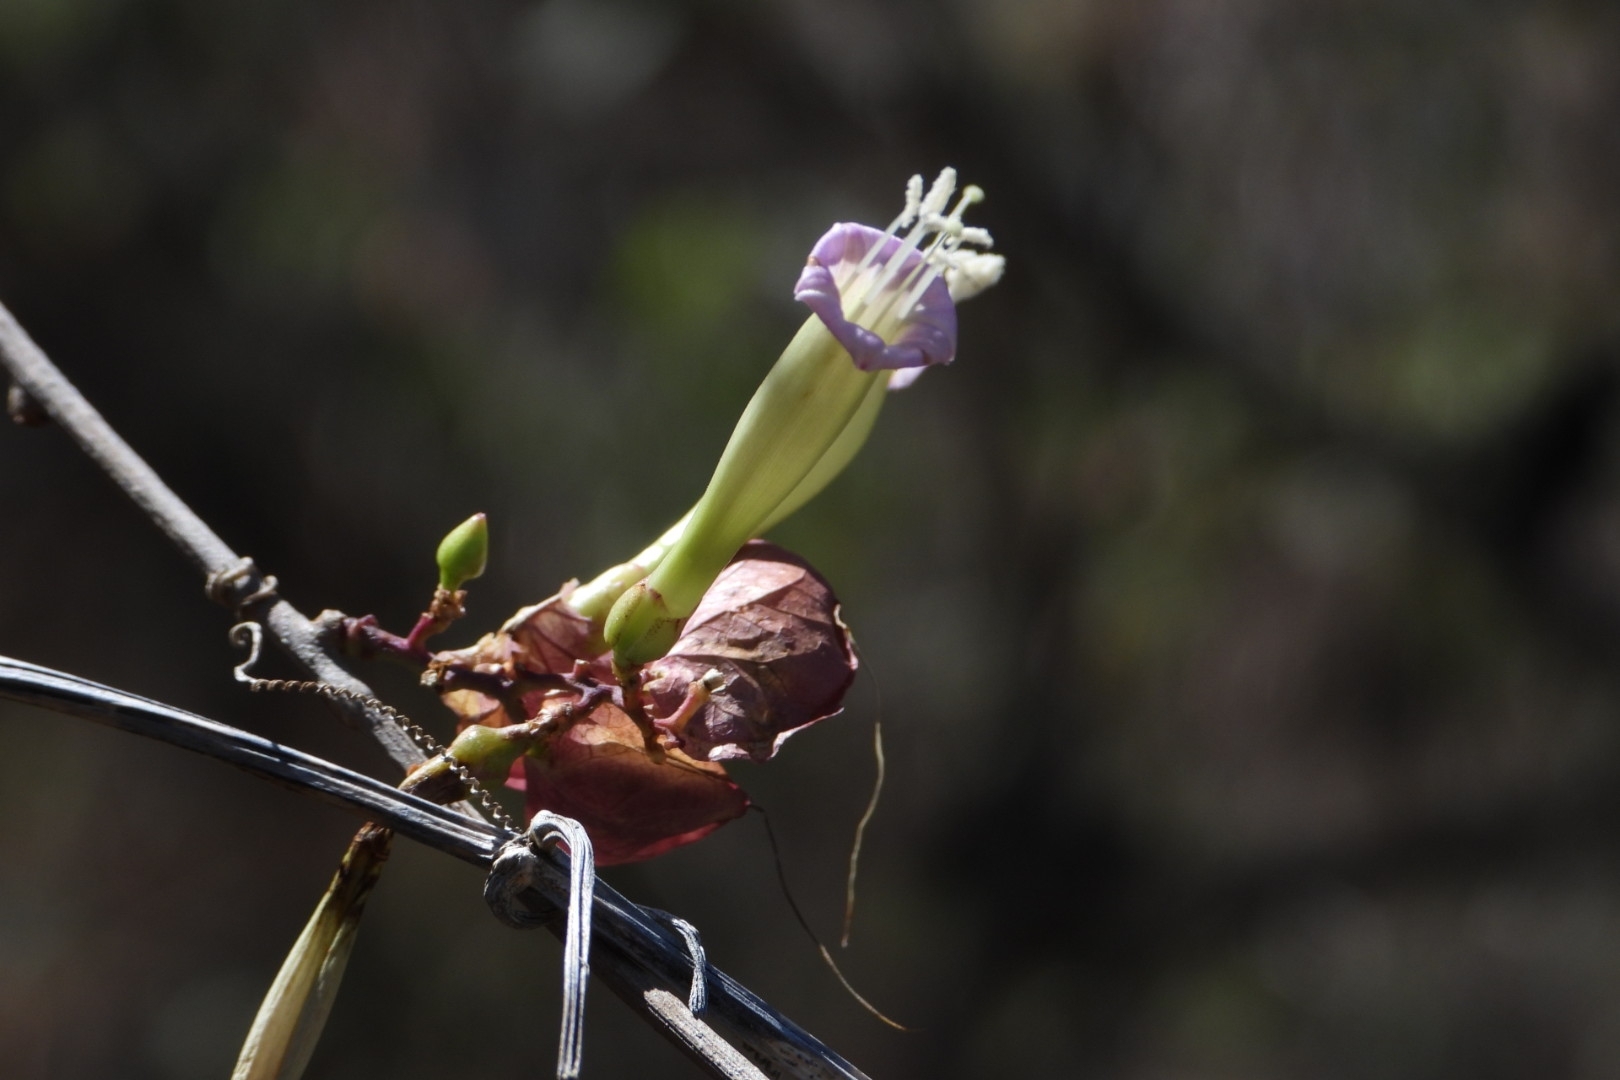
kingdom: Plantae
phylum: Tracheophyta
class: Magnoliopsida
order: Solanales
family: Convolvulaceae
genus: Ipomoea
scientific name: Ipomoea bracteata
